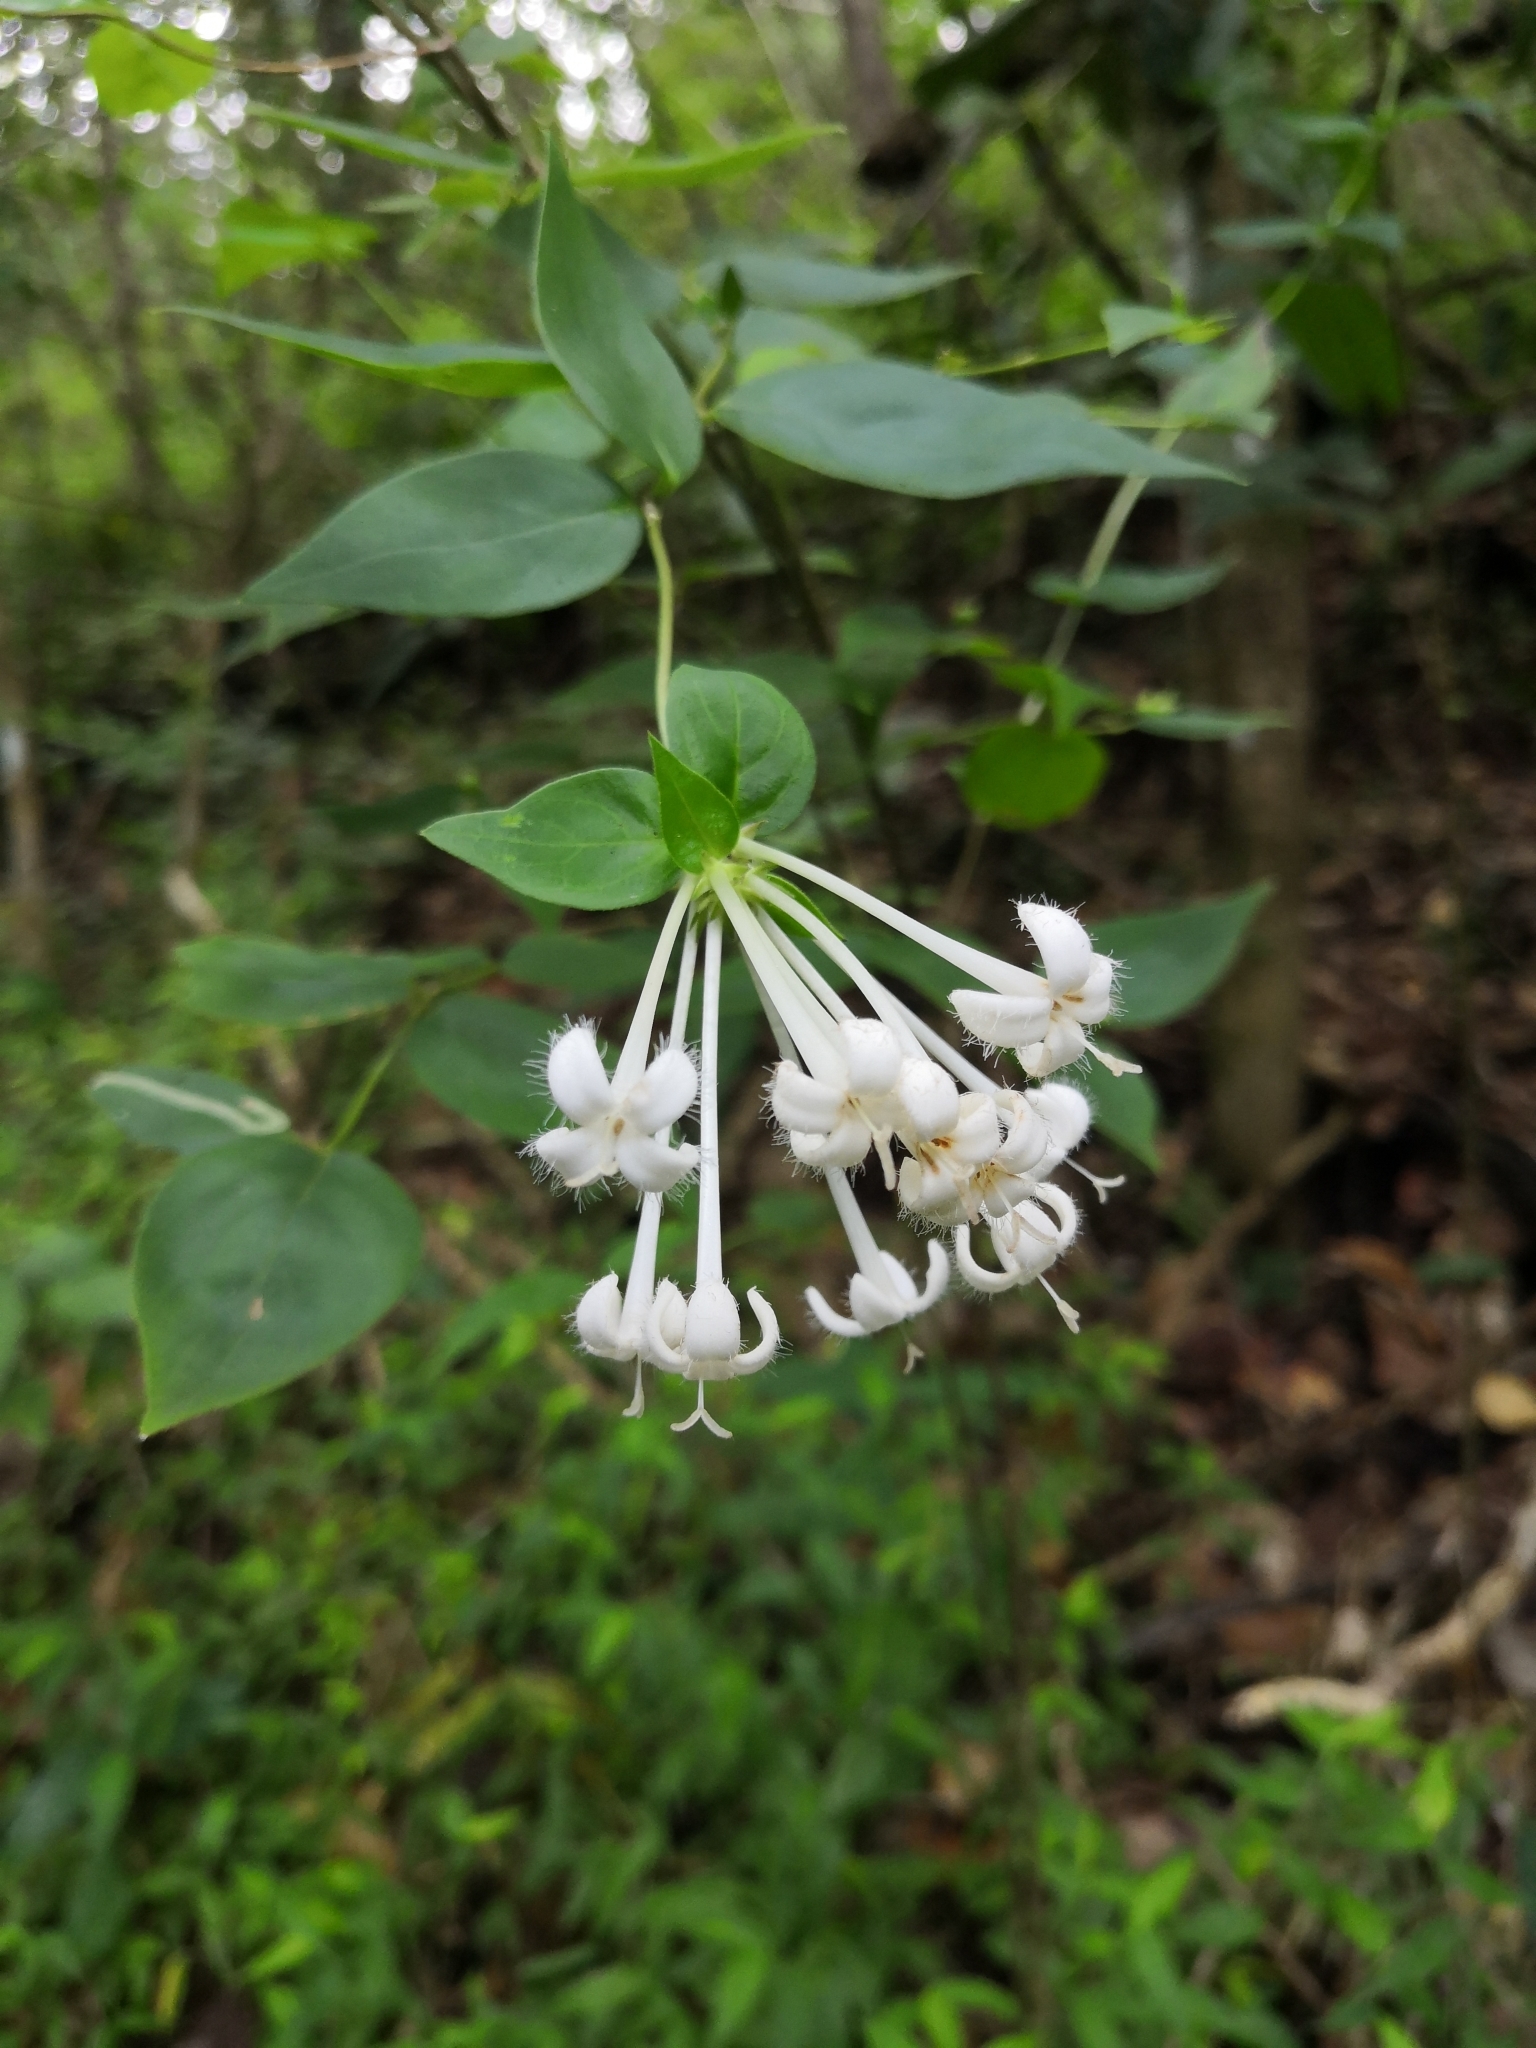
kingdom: Plantae
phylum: Tracheophyta
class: Magnoliopsida
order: Gentianales
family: Rubiaceae
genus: Bouvardia
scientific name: Bouvardia lottiae
